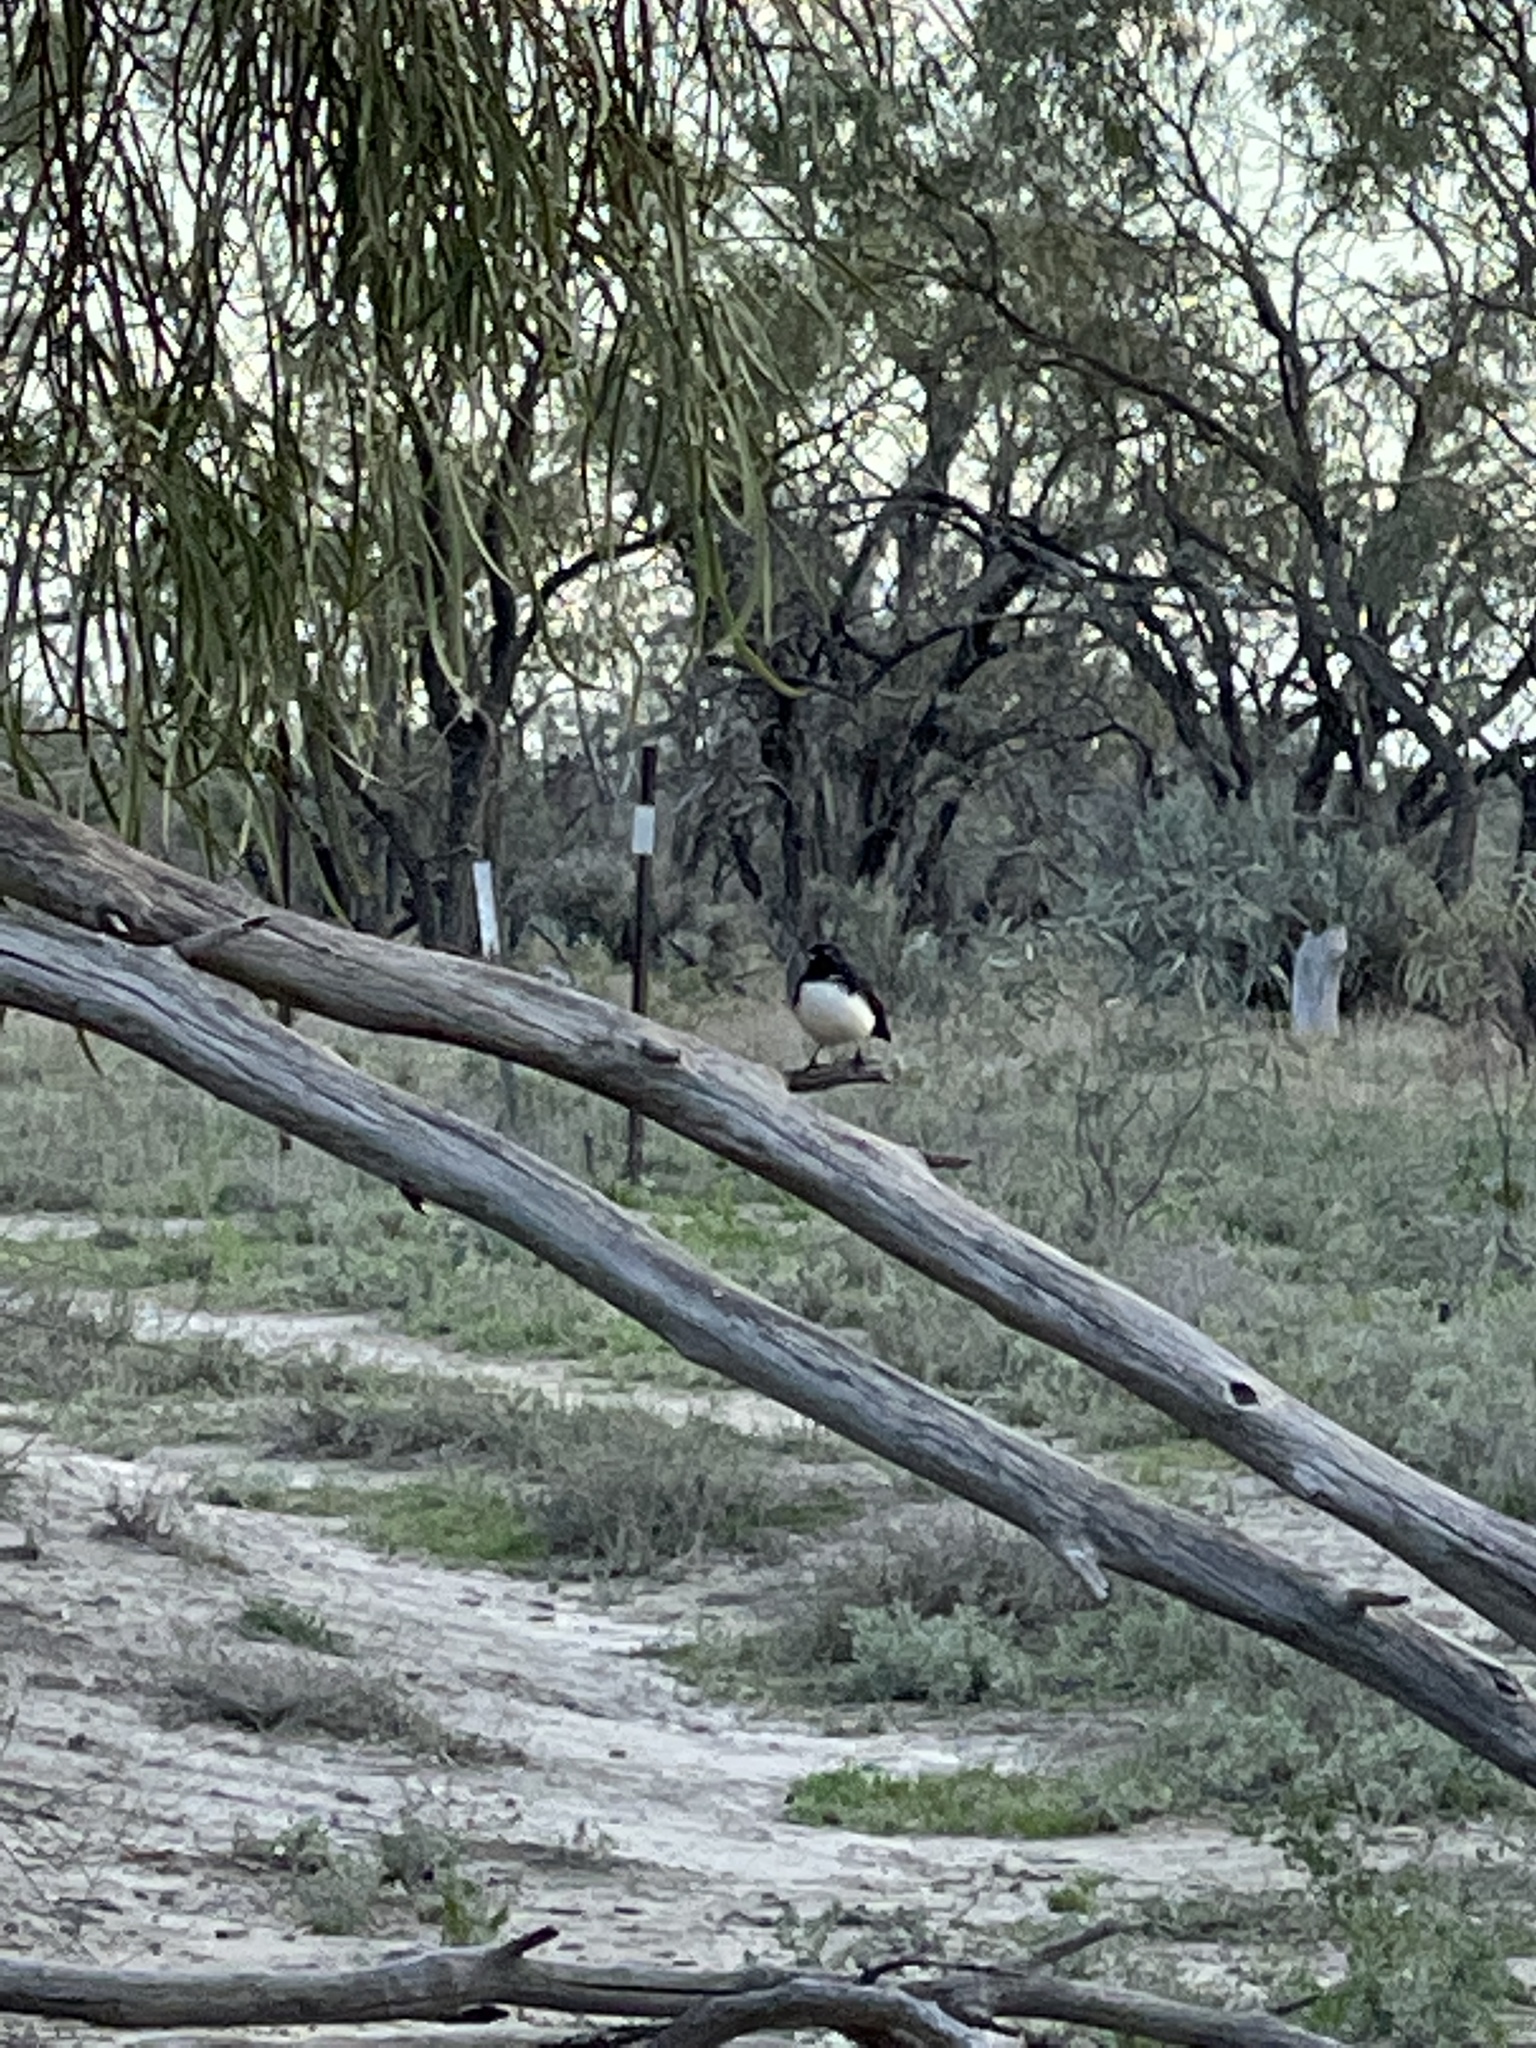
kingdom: Animalia
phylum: Chordata
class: Aves
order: Passeriformes
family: Rhipiduridae
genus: Rhipidura
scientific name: Rhipidura leucophrys
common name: Willie wagtail
